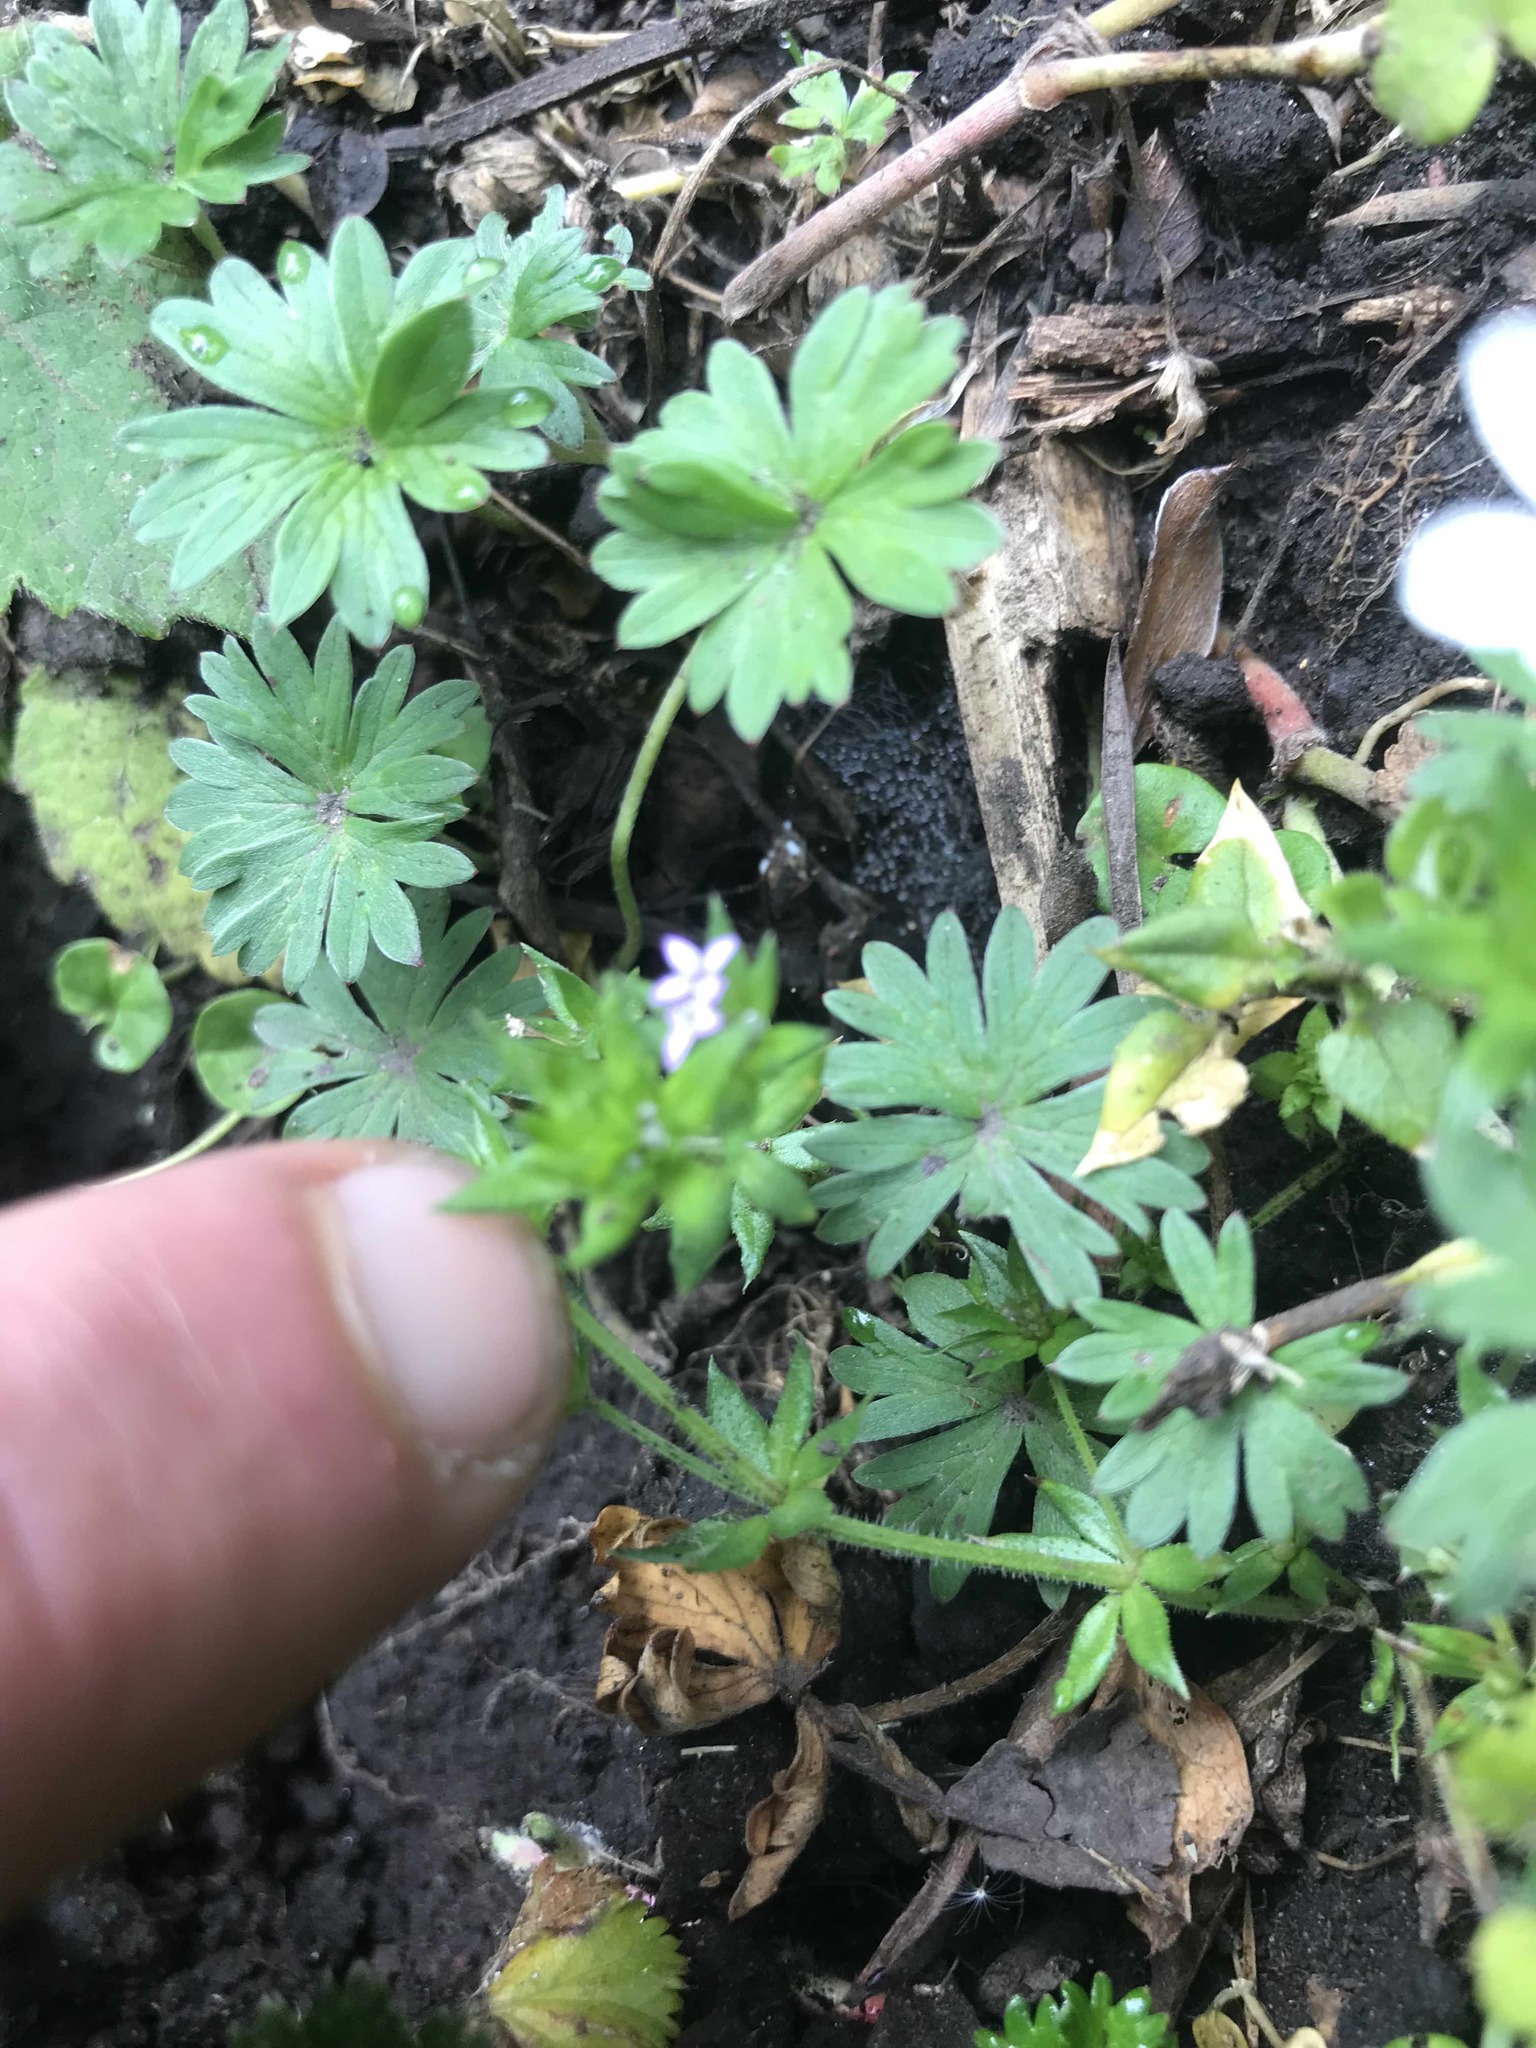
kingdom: Plantae
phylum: Tracheophyta
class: Magnoliopsida
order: Gentianales
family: Rubiaceae
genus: Sherardia
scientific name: Sherardia arvensis
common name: Field madder
